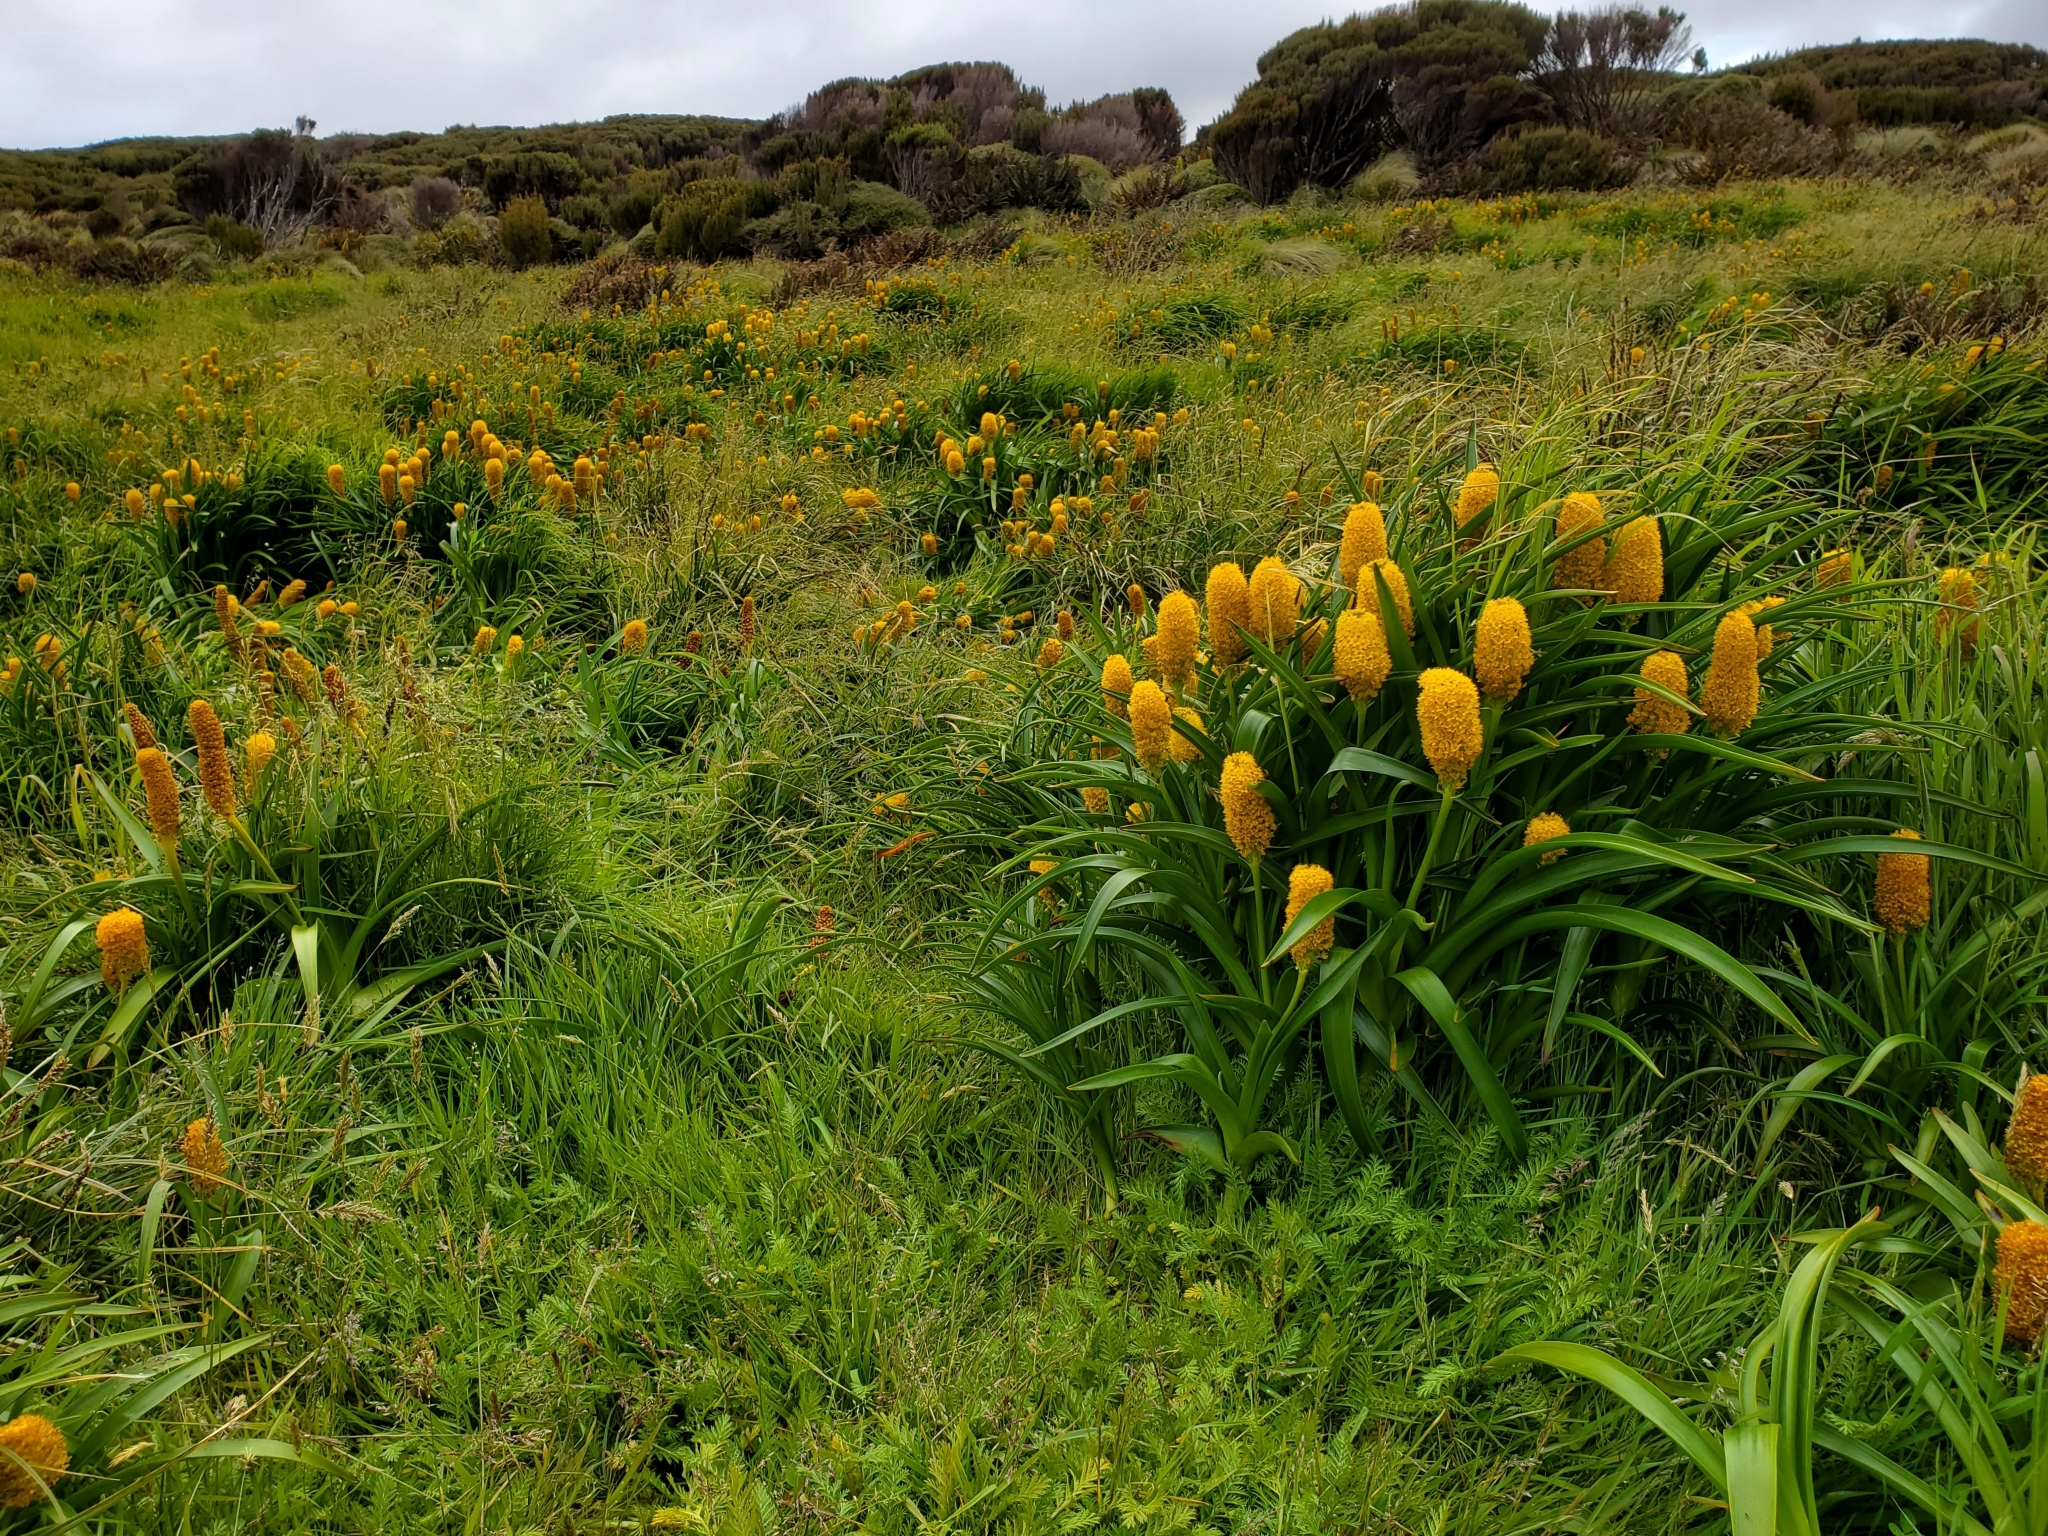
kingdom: Plantae
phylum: Tracheophyta
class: Liliopsida
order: Asparagales
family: Asphodelaceae
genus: Bulbinella
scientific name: Bulbinella rossii
